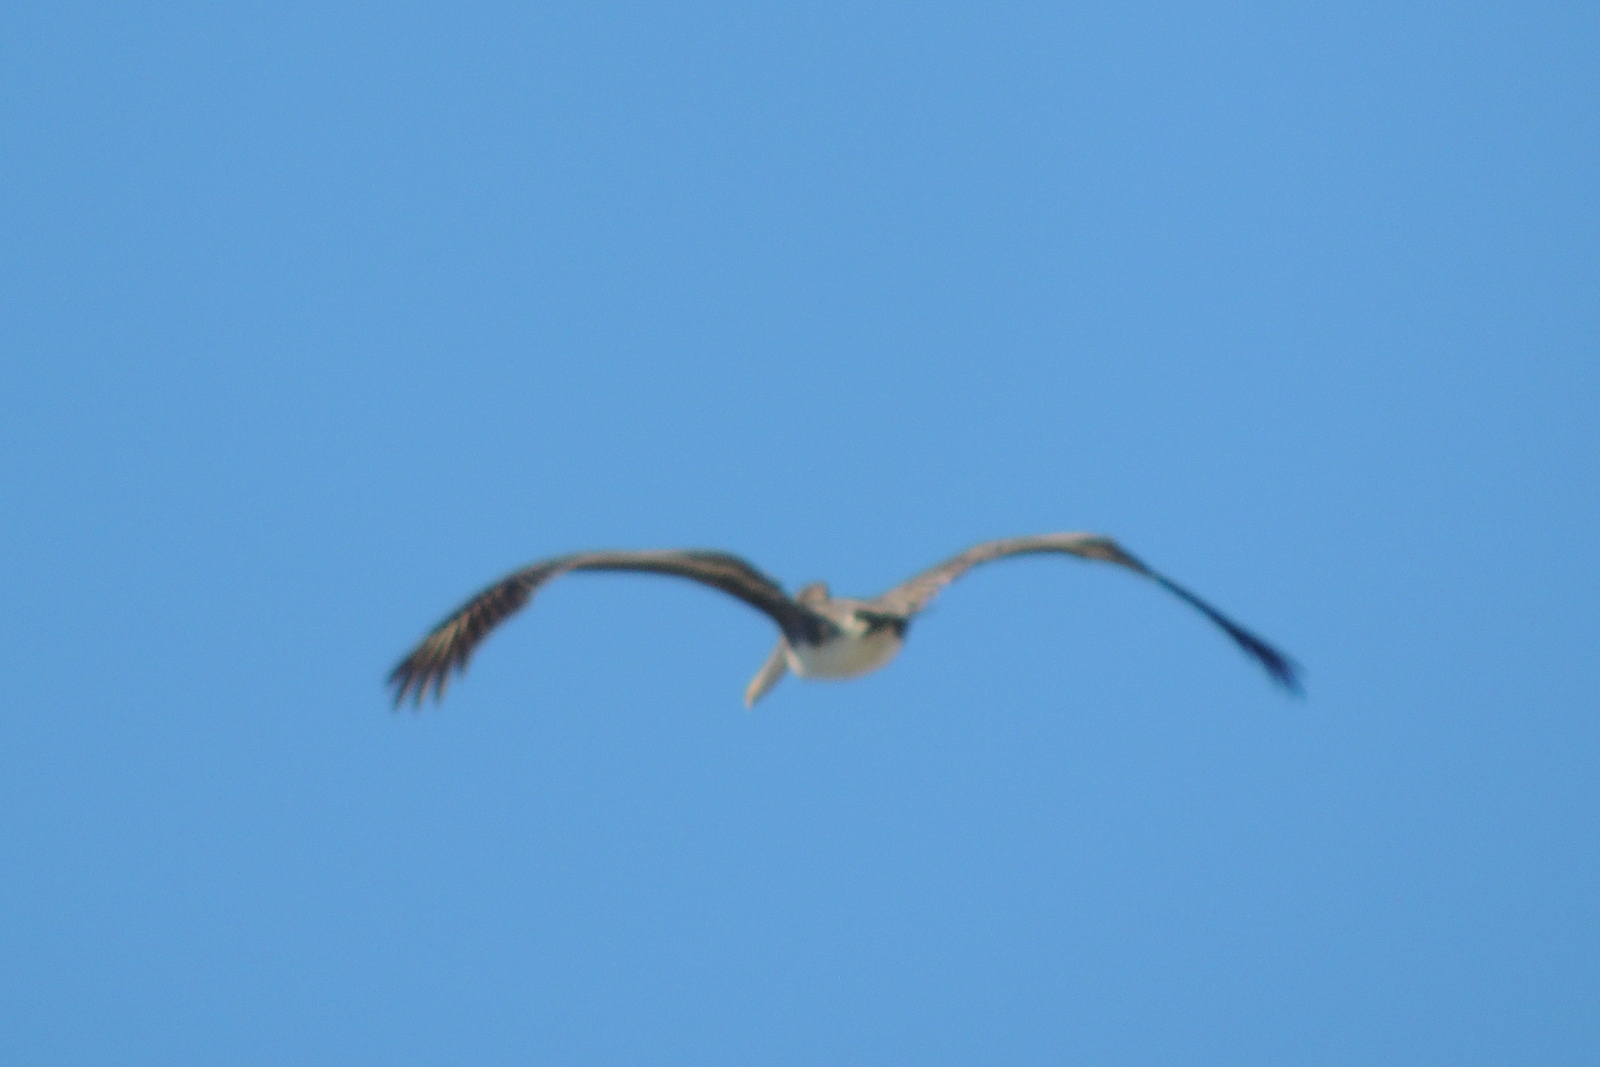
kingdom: Animalia
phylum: Chordata
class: Aves
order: Pelecaniformes
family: Pelecanidae
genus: Pelecanus
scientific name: Pelecanus occidentalis
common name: Brown pelican
